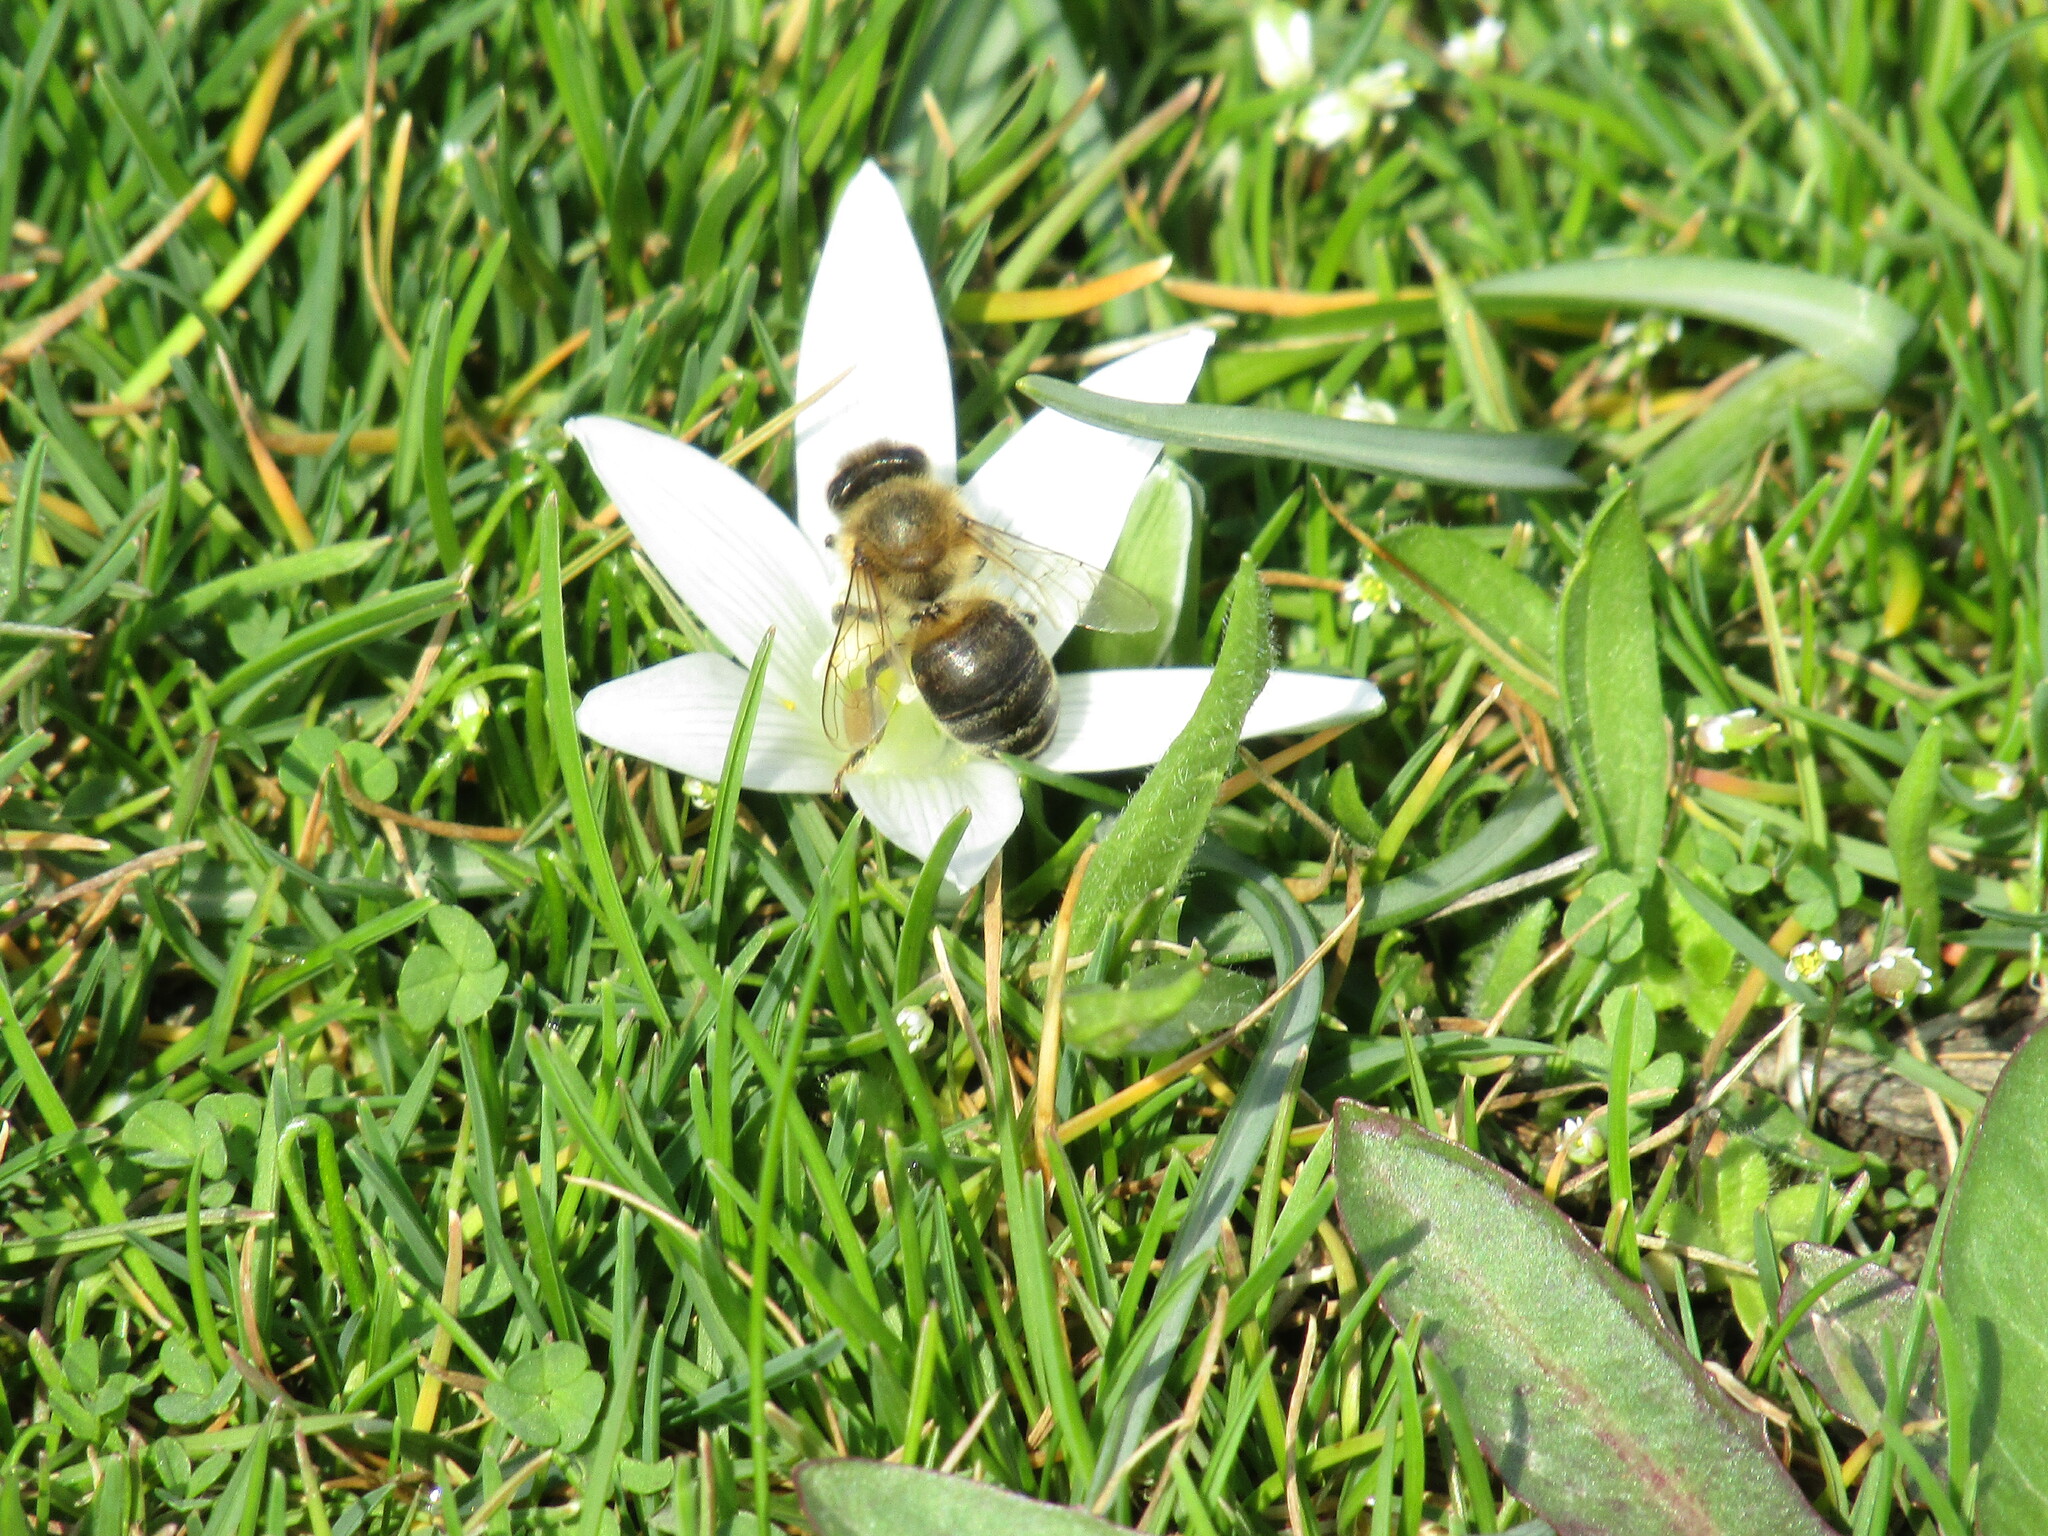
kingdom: Animalia
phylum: Arthropoda
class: Insecta
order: Hymenoptera
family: Apidae
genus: Apis
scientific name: Apis mellifera
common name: Honey bee
